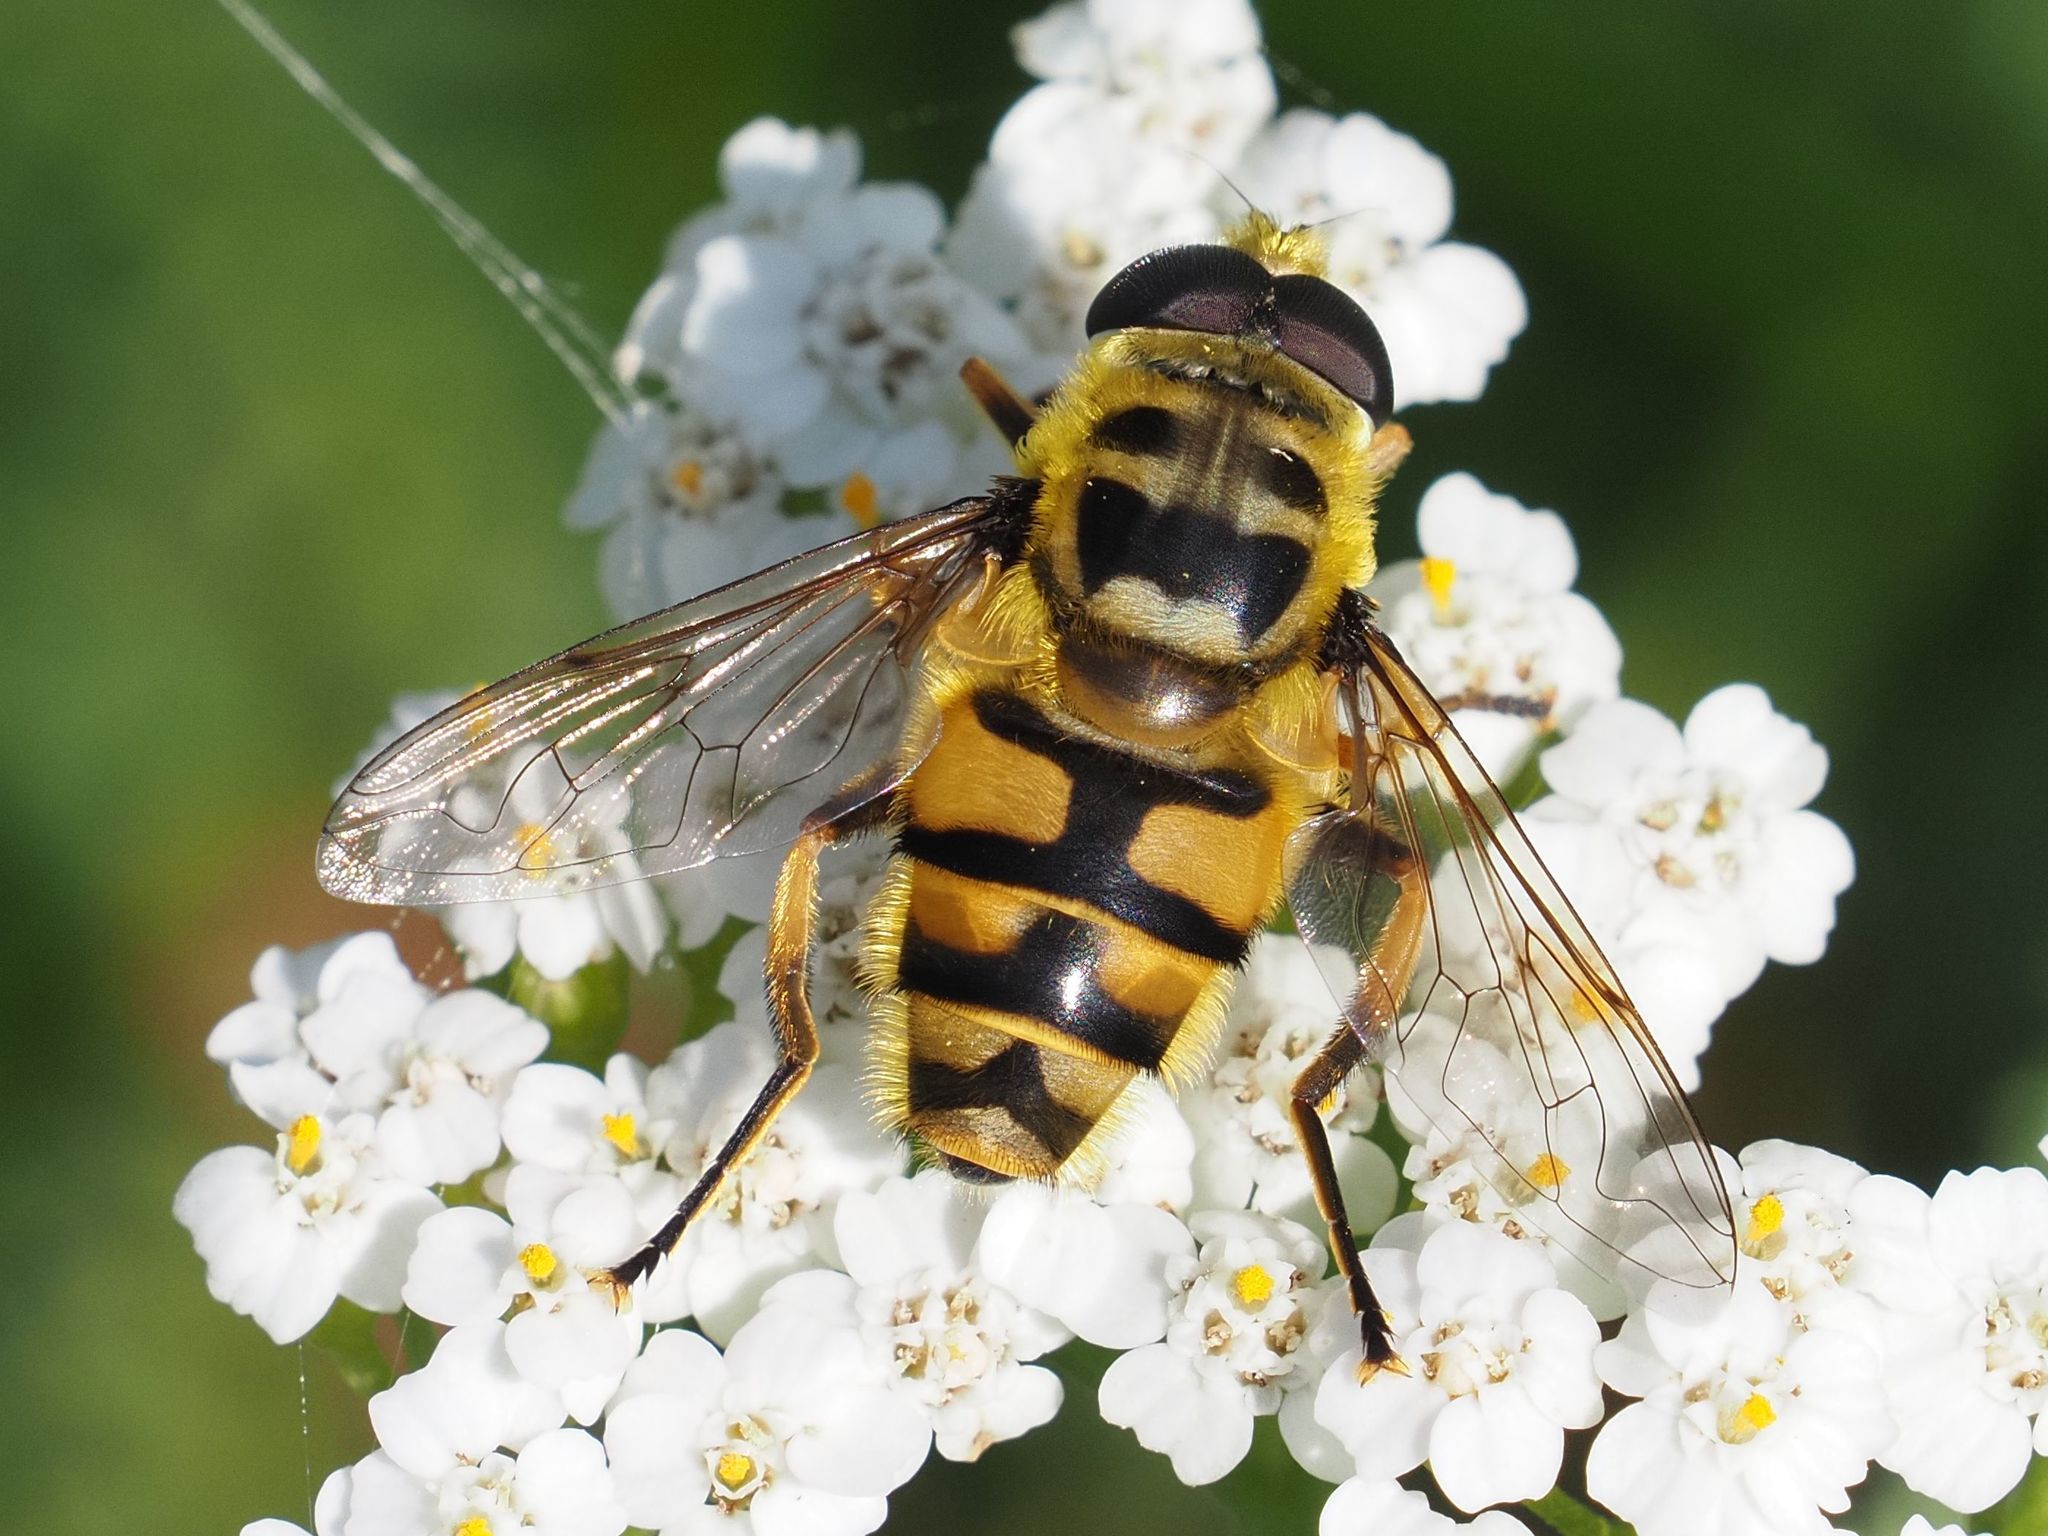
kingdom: Animalia
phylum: Arthropoda
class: Insecta
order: Diptera
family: Syrphidae
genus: Myathropa
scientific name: Myathropa florea
